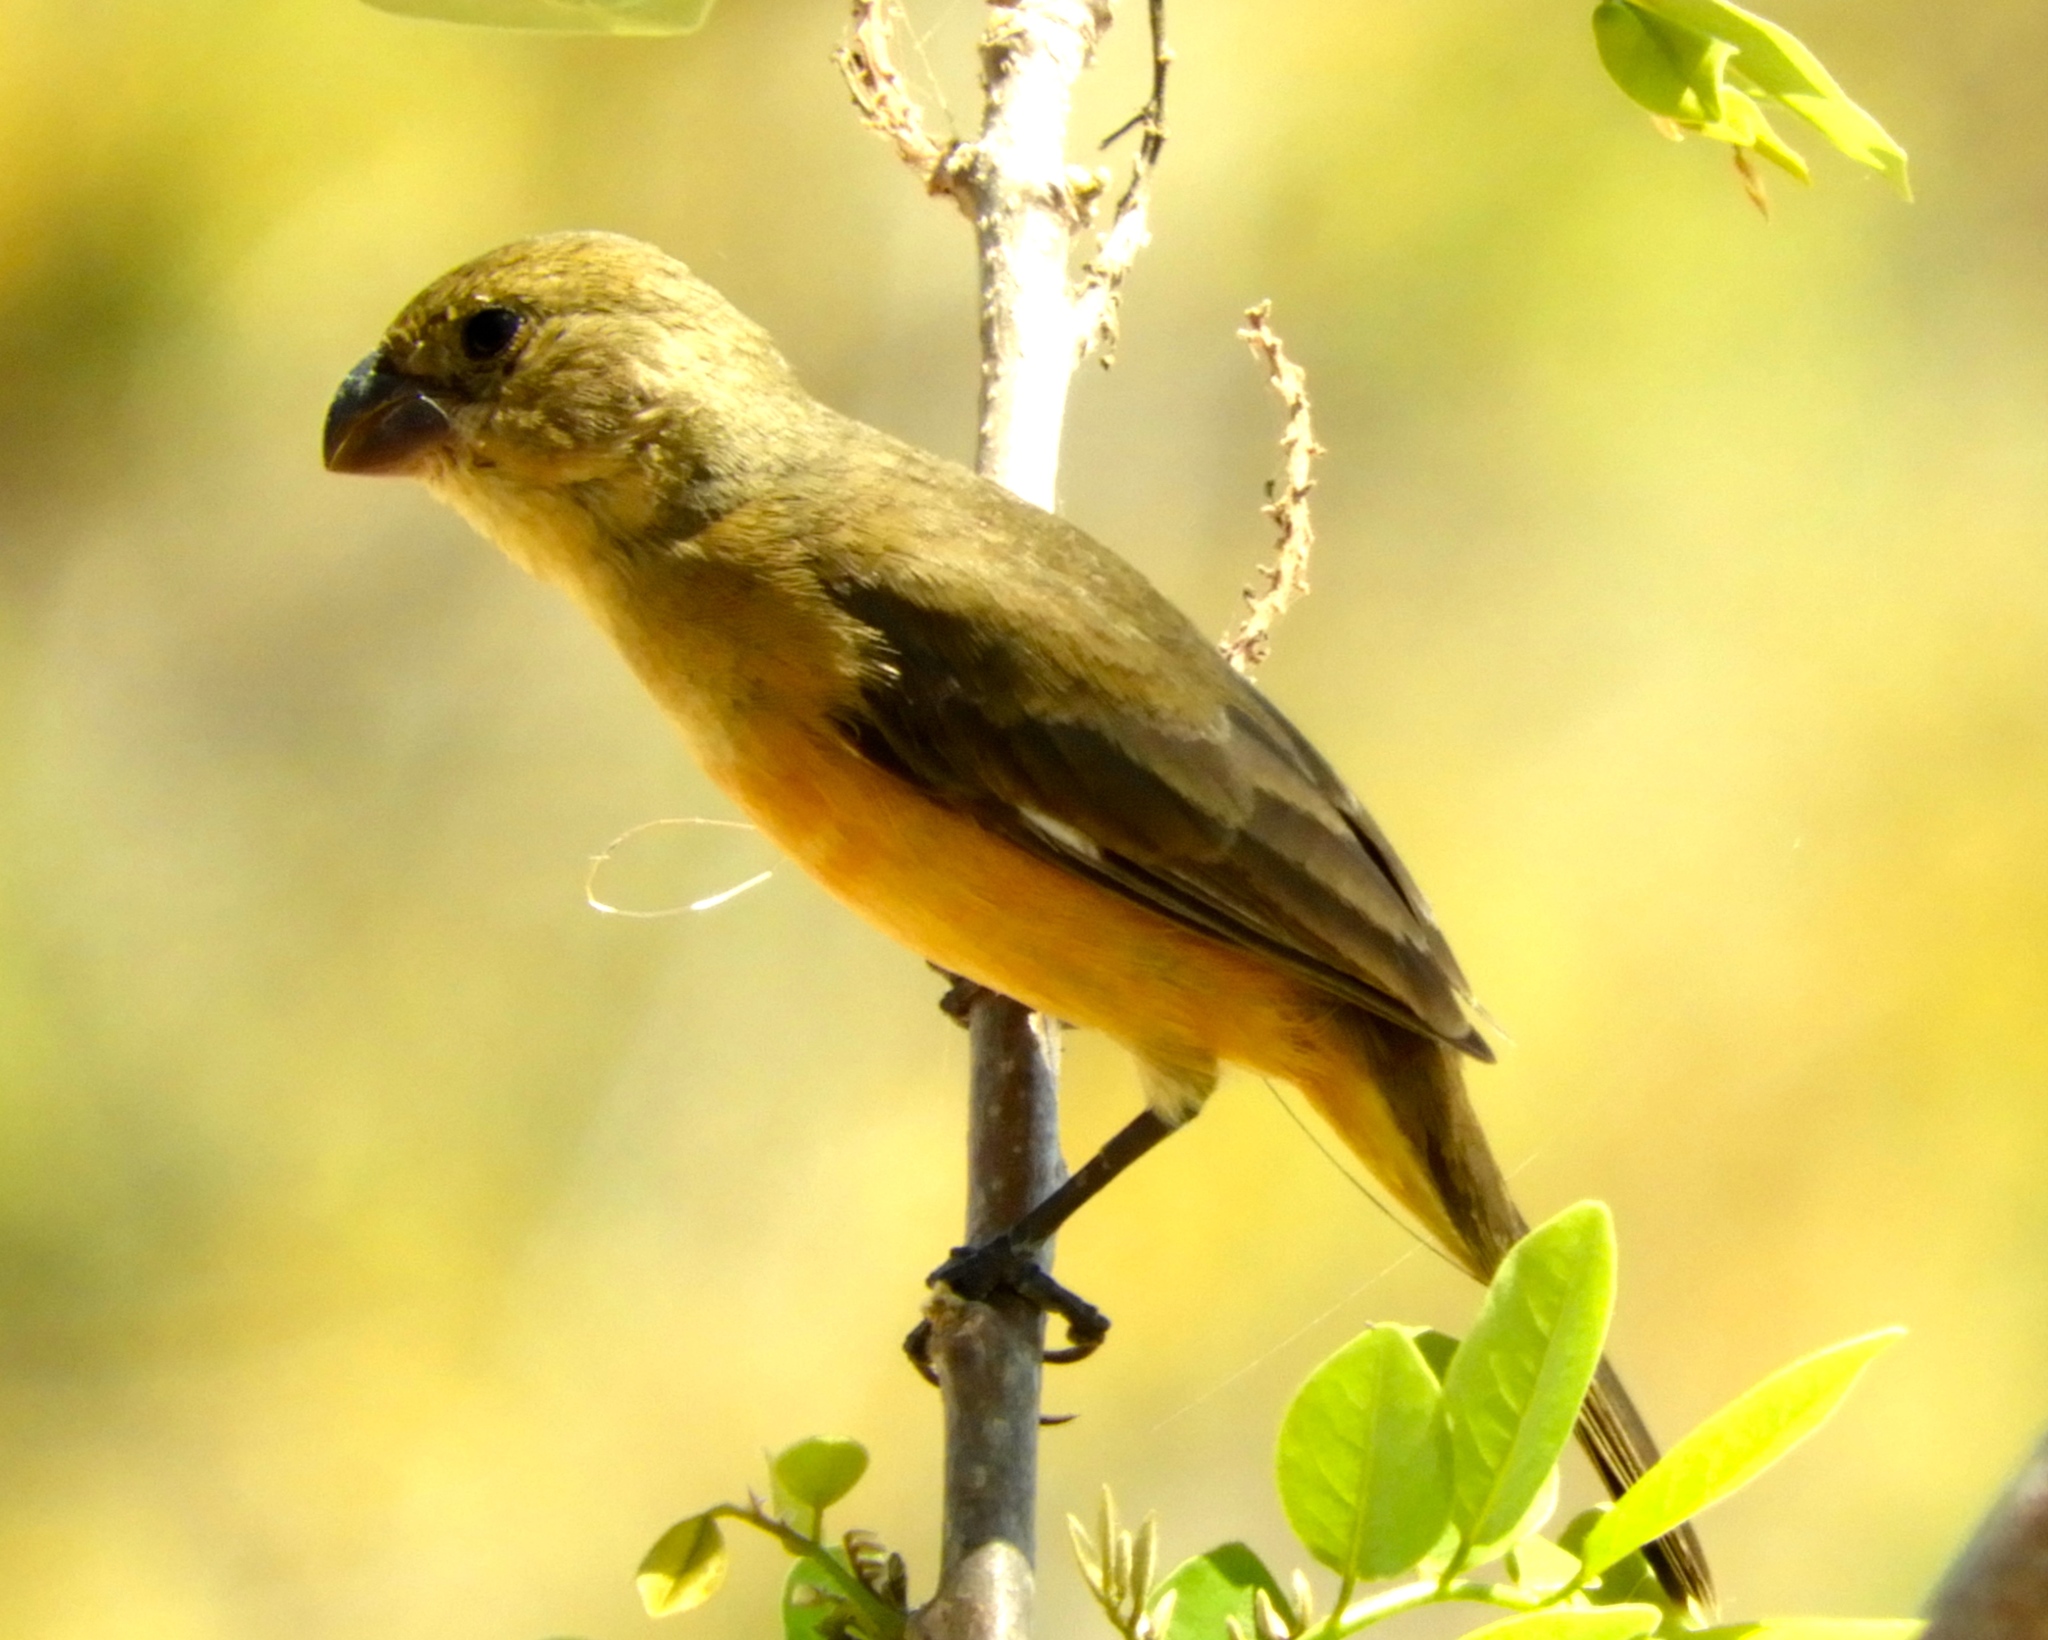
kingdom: Animalia
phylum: Chordata
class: Aves
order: Passeriformes
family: Thraupidae
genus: Sporophila
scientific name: Sporophila torqueola
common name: White-collared seedeater
